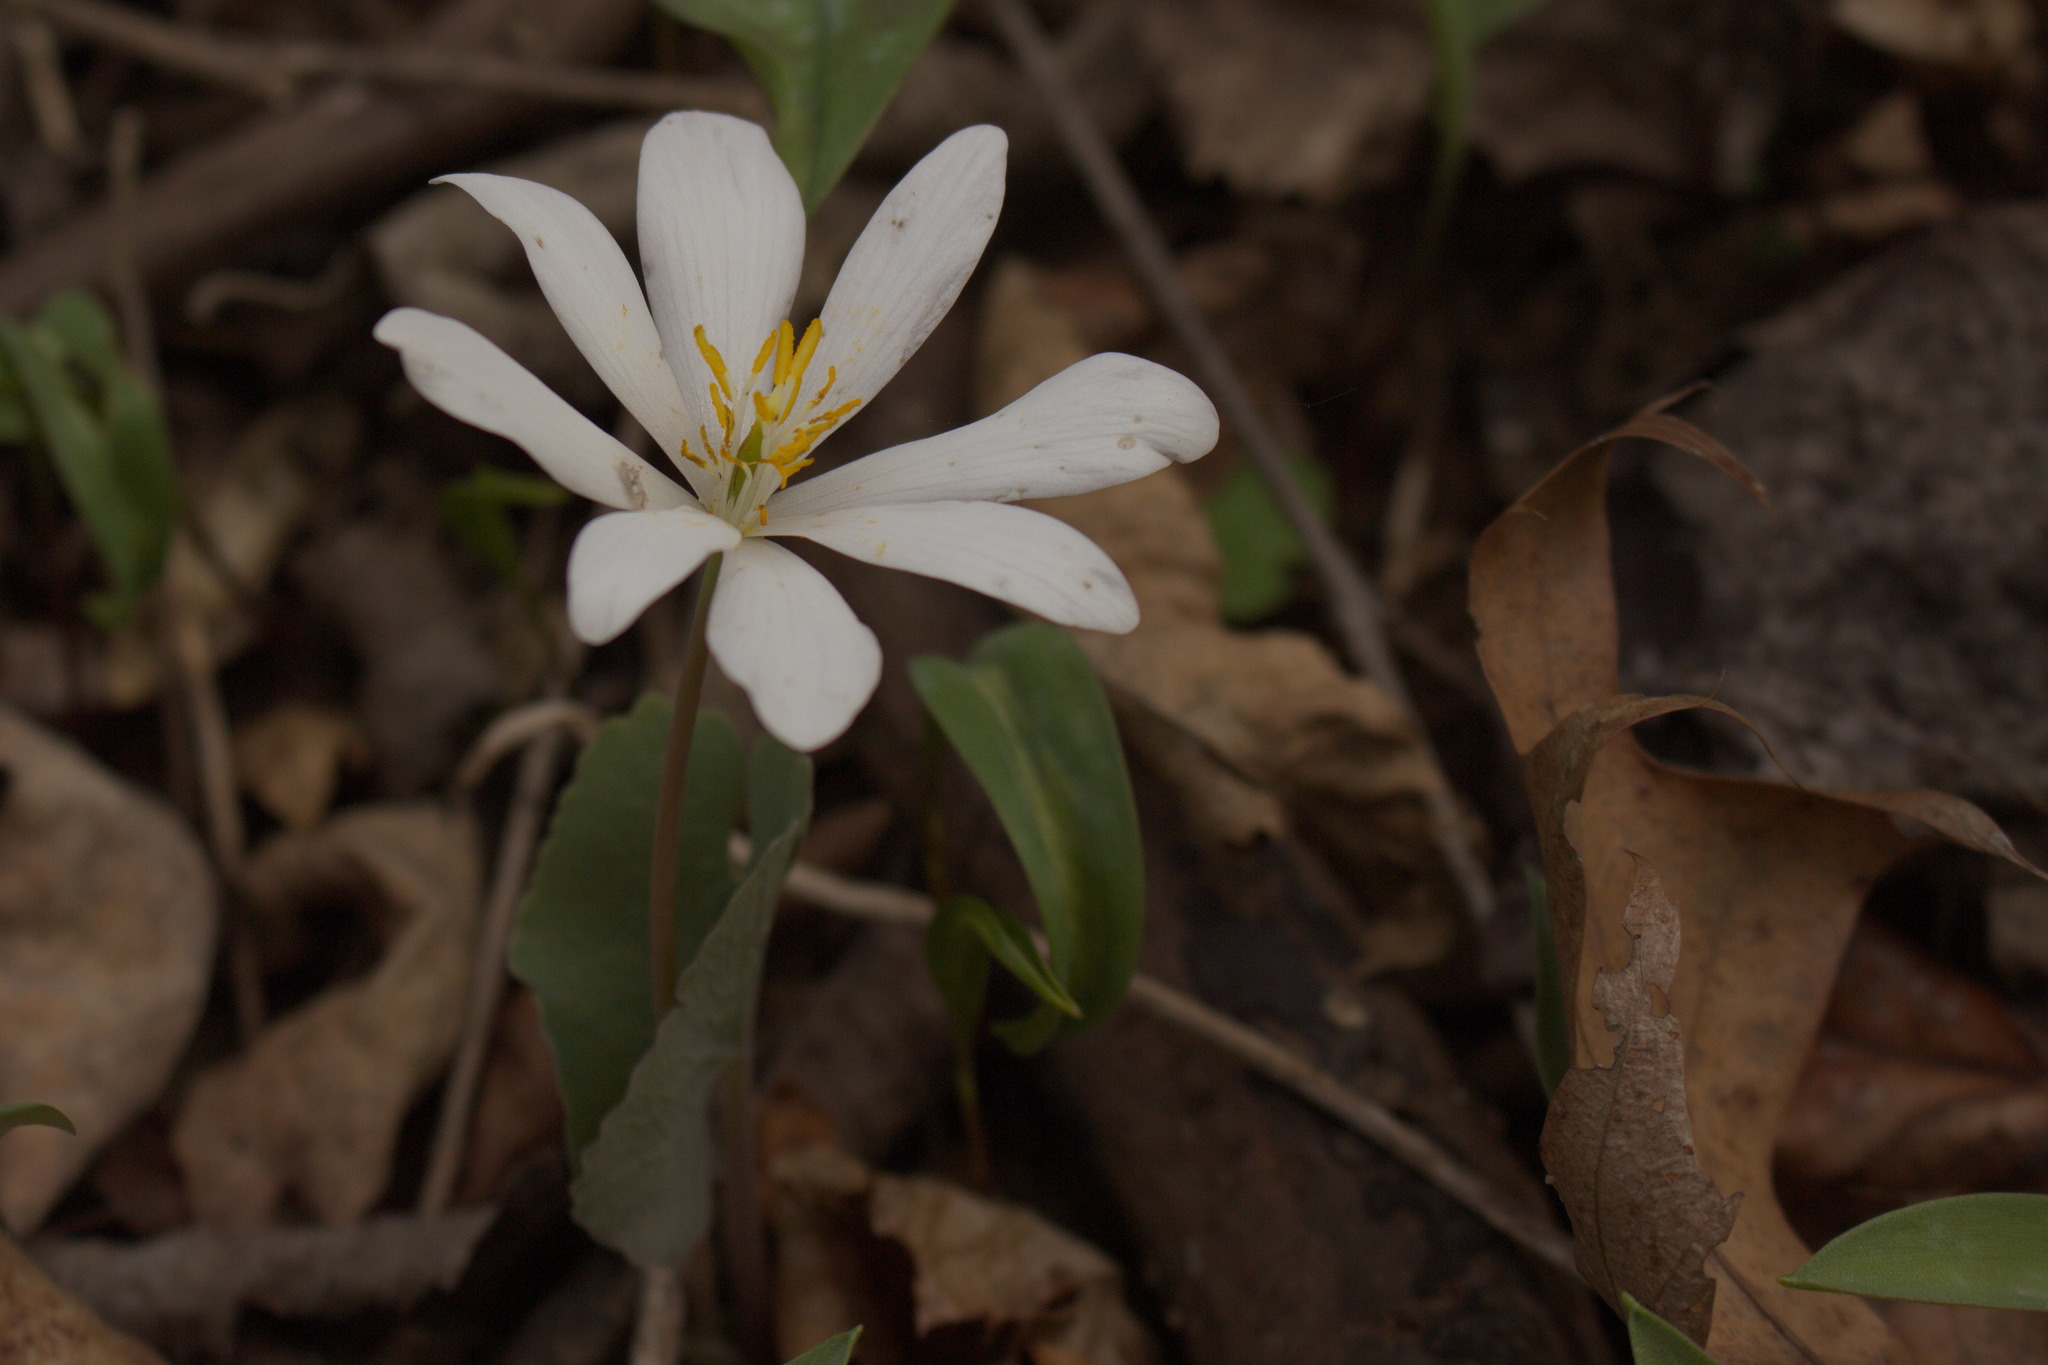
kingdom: Plantae
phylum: Tracheophyta
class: Magnoliopsida
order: Ranunculales
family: Papaveraceae
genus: Sanguinaria
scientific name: Sanguinaria canadensis
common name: Bloodroot
